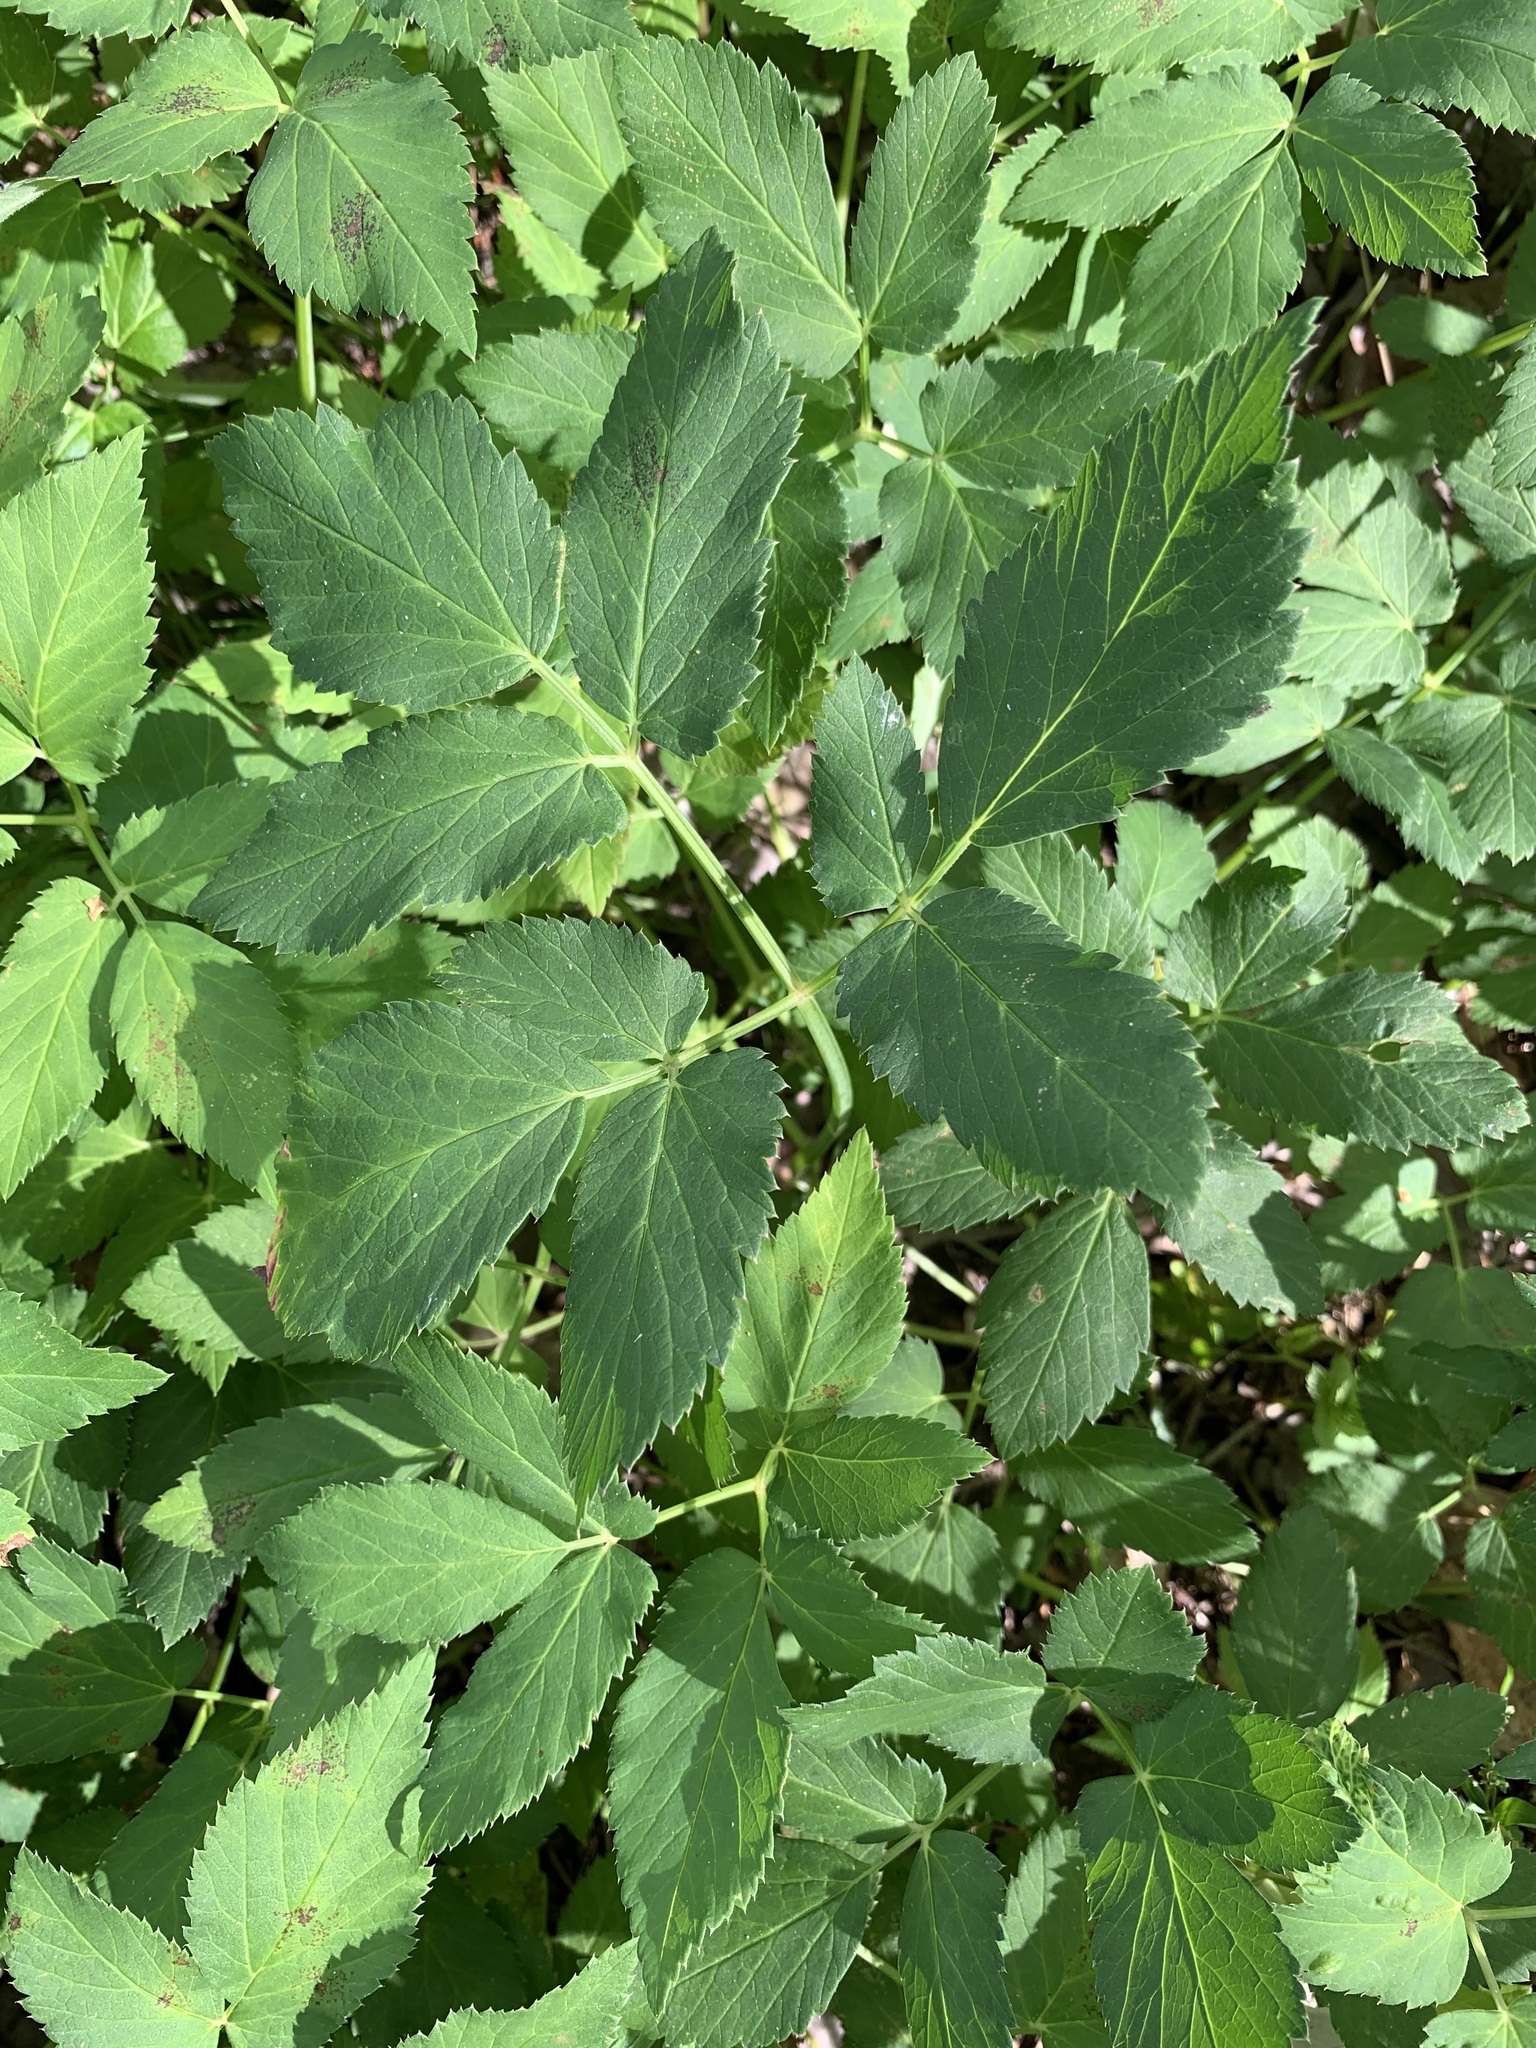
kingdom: Plantae
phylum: Tracheophyta
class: Magnoliopsida
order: Apiales
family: Apiaceae
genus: Aegopodium
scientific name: Aegopodium podagraria
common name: Ground-elder
